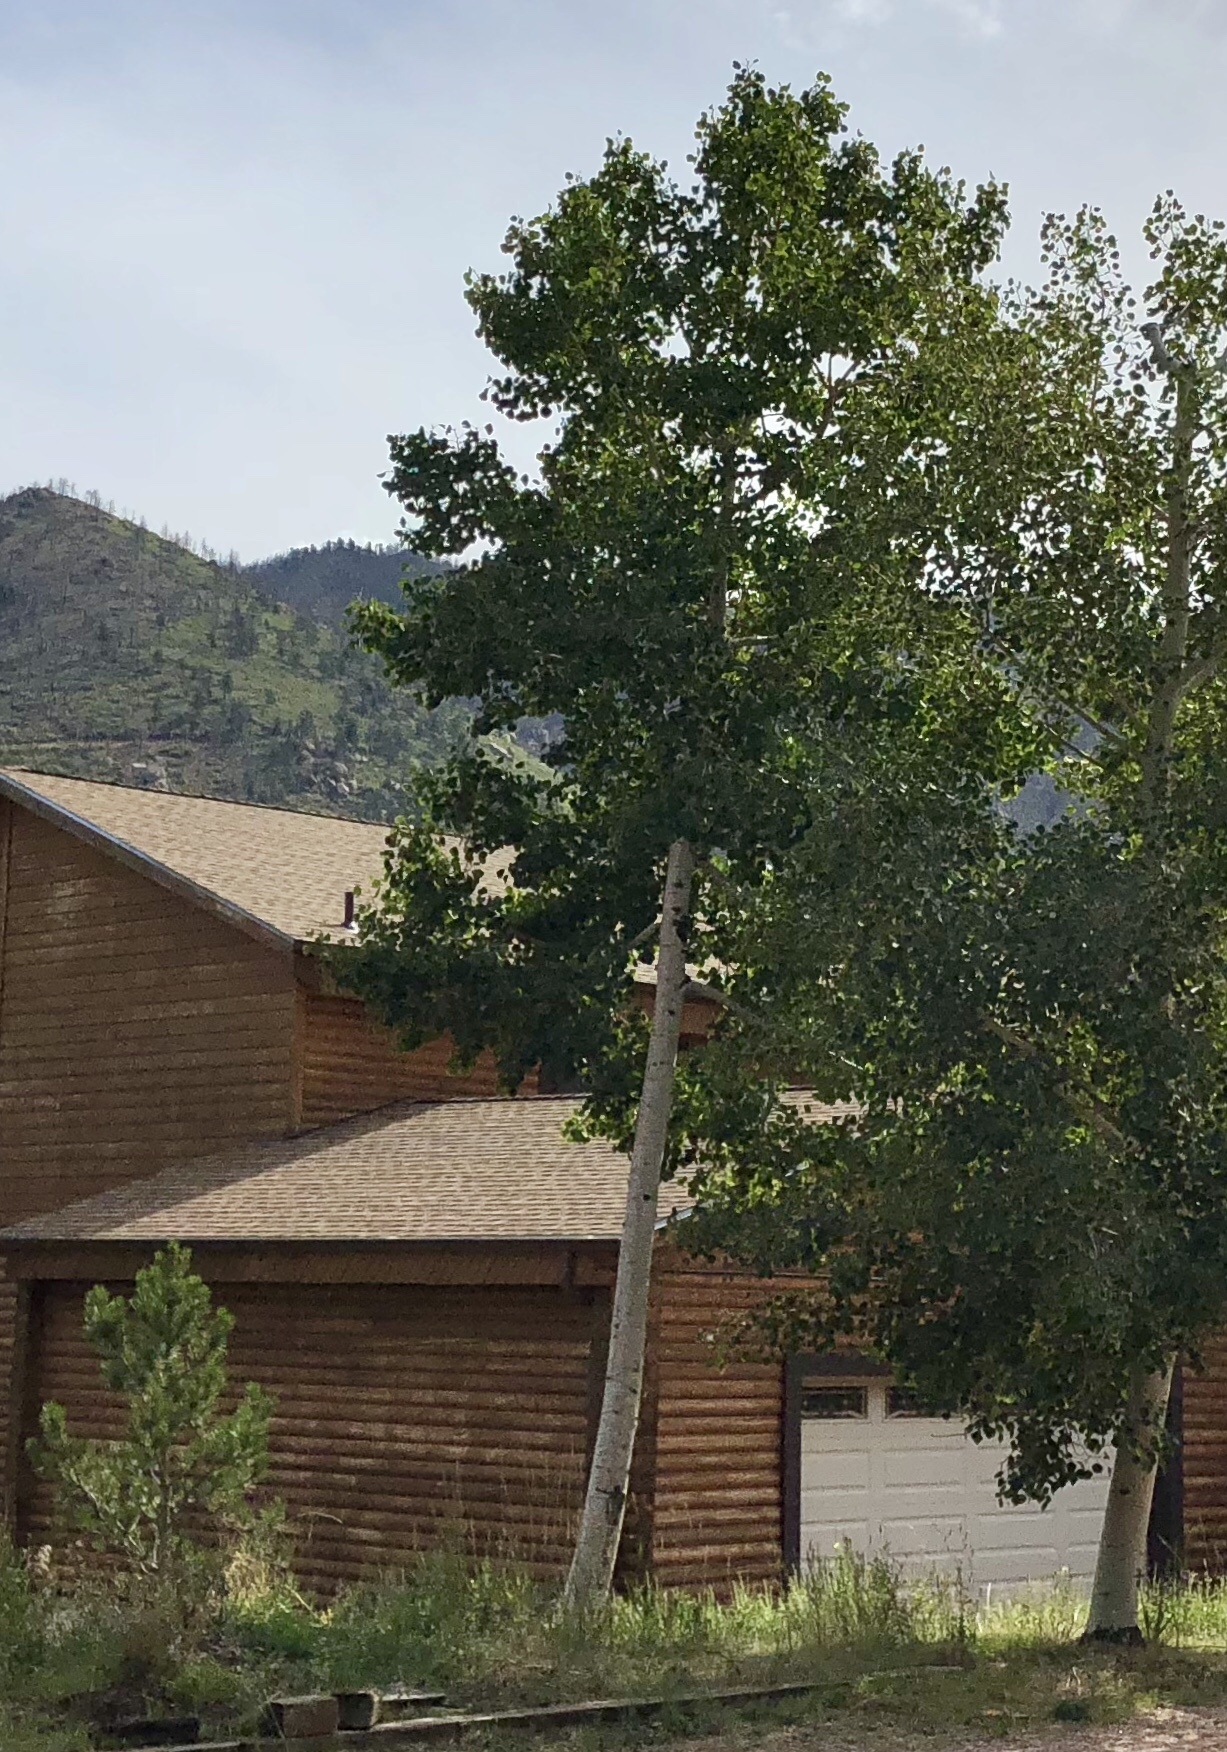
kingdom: Plantae
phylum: Tracheophyta
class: Magnoliopsida
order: Malpighiales
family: Salicaceae
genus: Populus
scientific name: Populus tremuloides
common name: Quaking aspen
